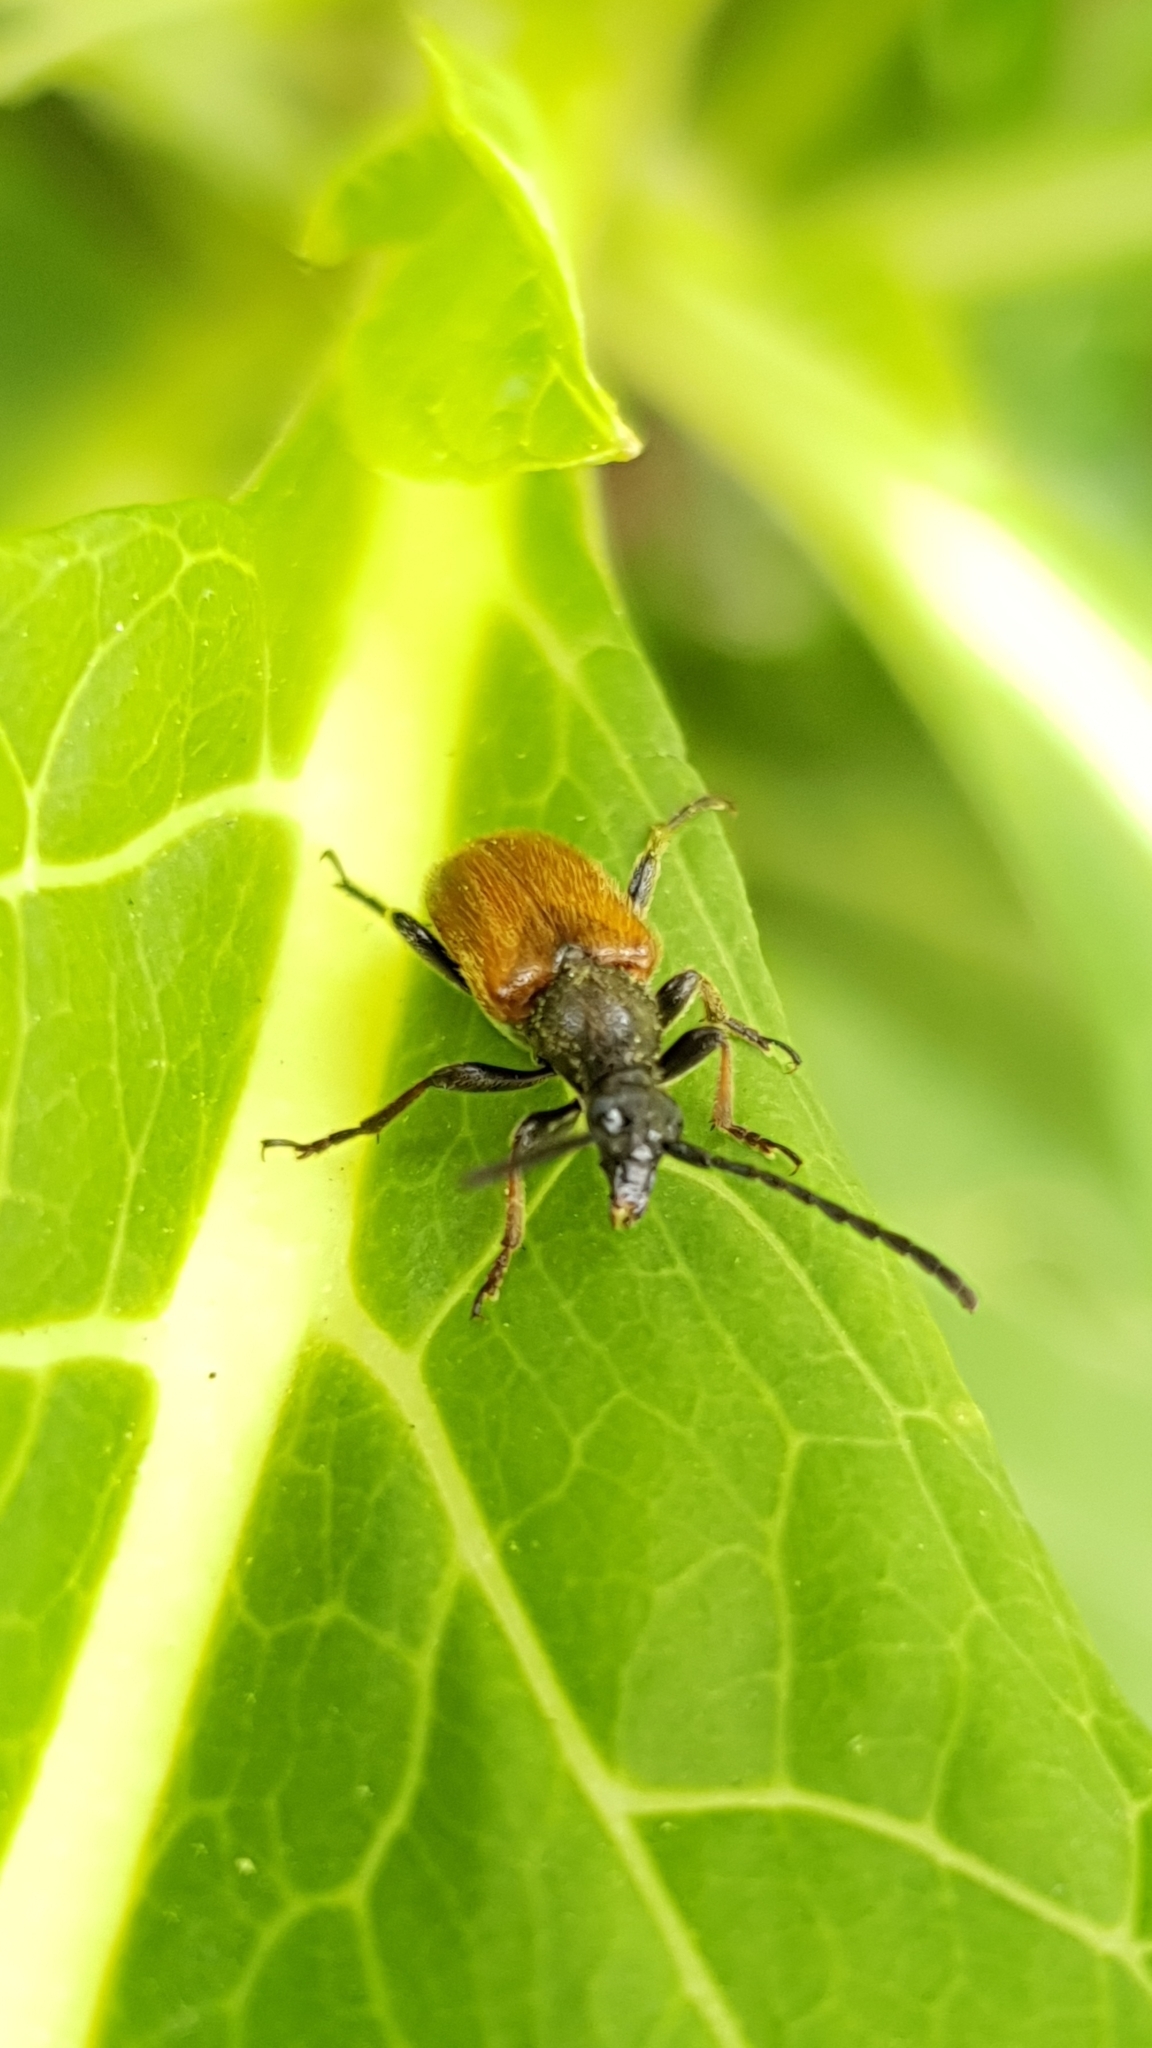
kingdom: Animalia
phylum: Arthropoda
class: Insecta
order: Coleoptera
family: Cerambycidae
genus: Pseudovadonia
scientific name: Pseudovadonia livida
